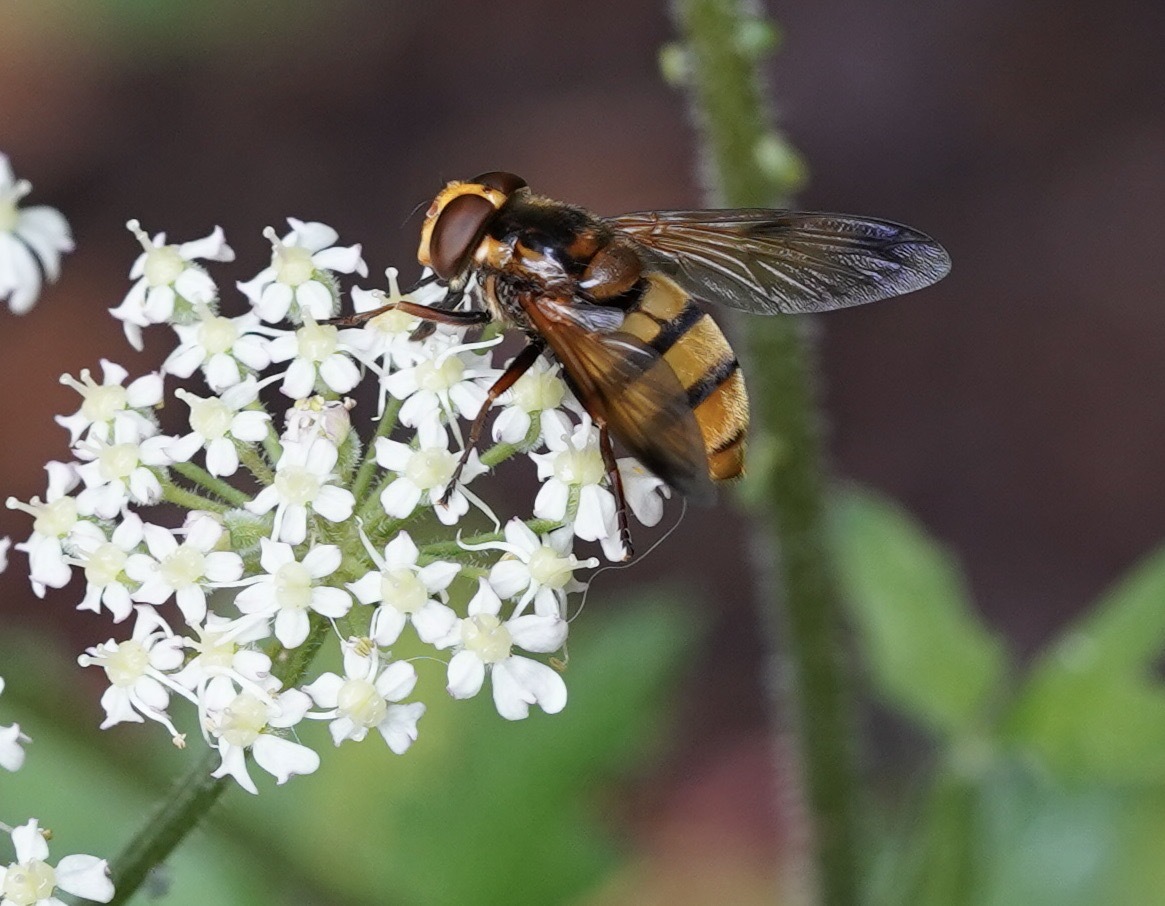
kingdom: Animalia
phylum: Arthropoda
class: Insecta
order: Diptera
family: Syrphidae
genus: Volucella
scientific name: Volucella inanis
